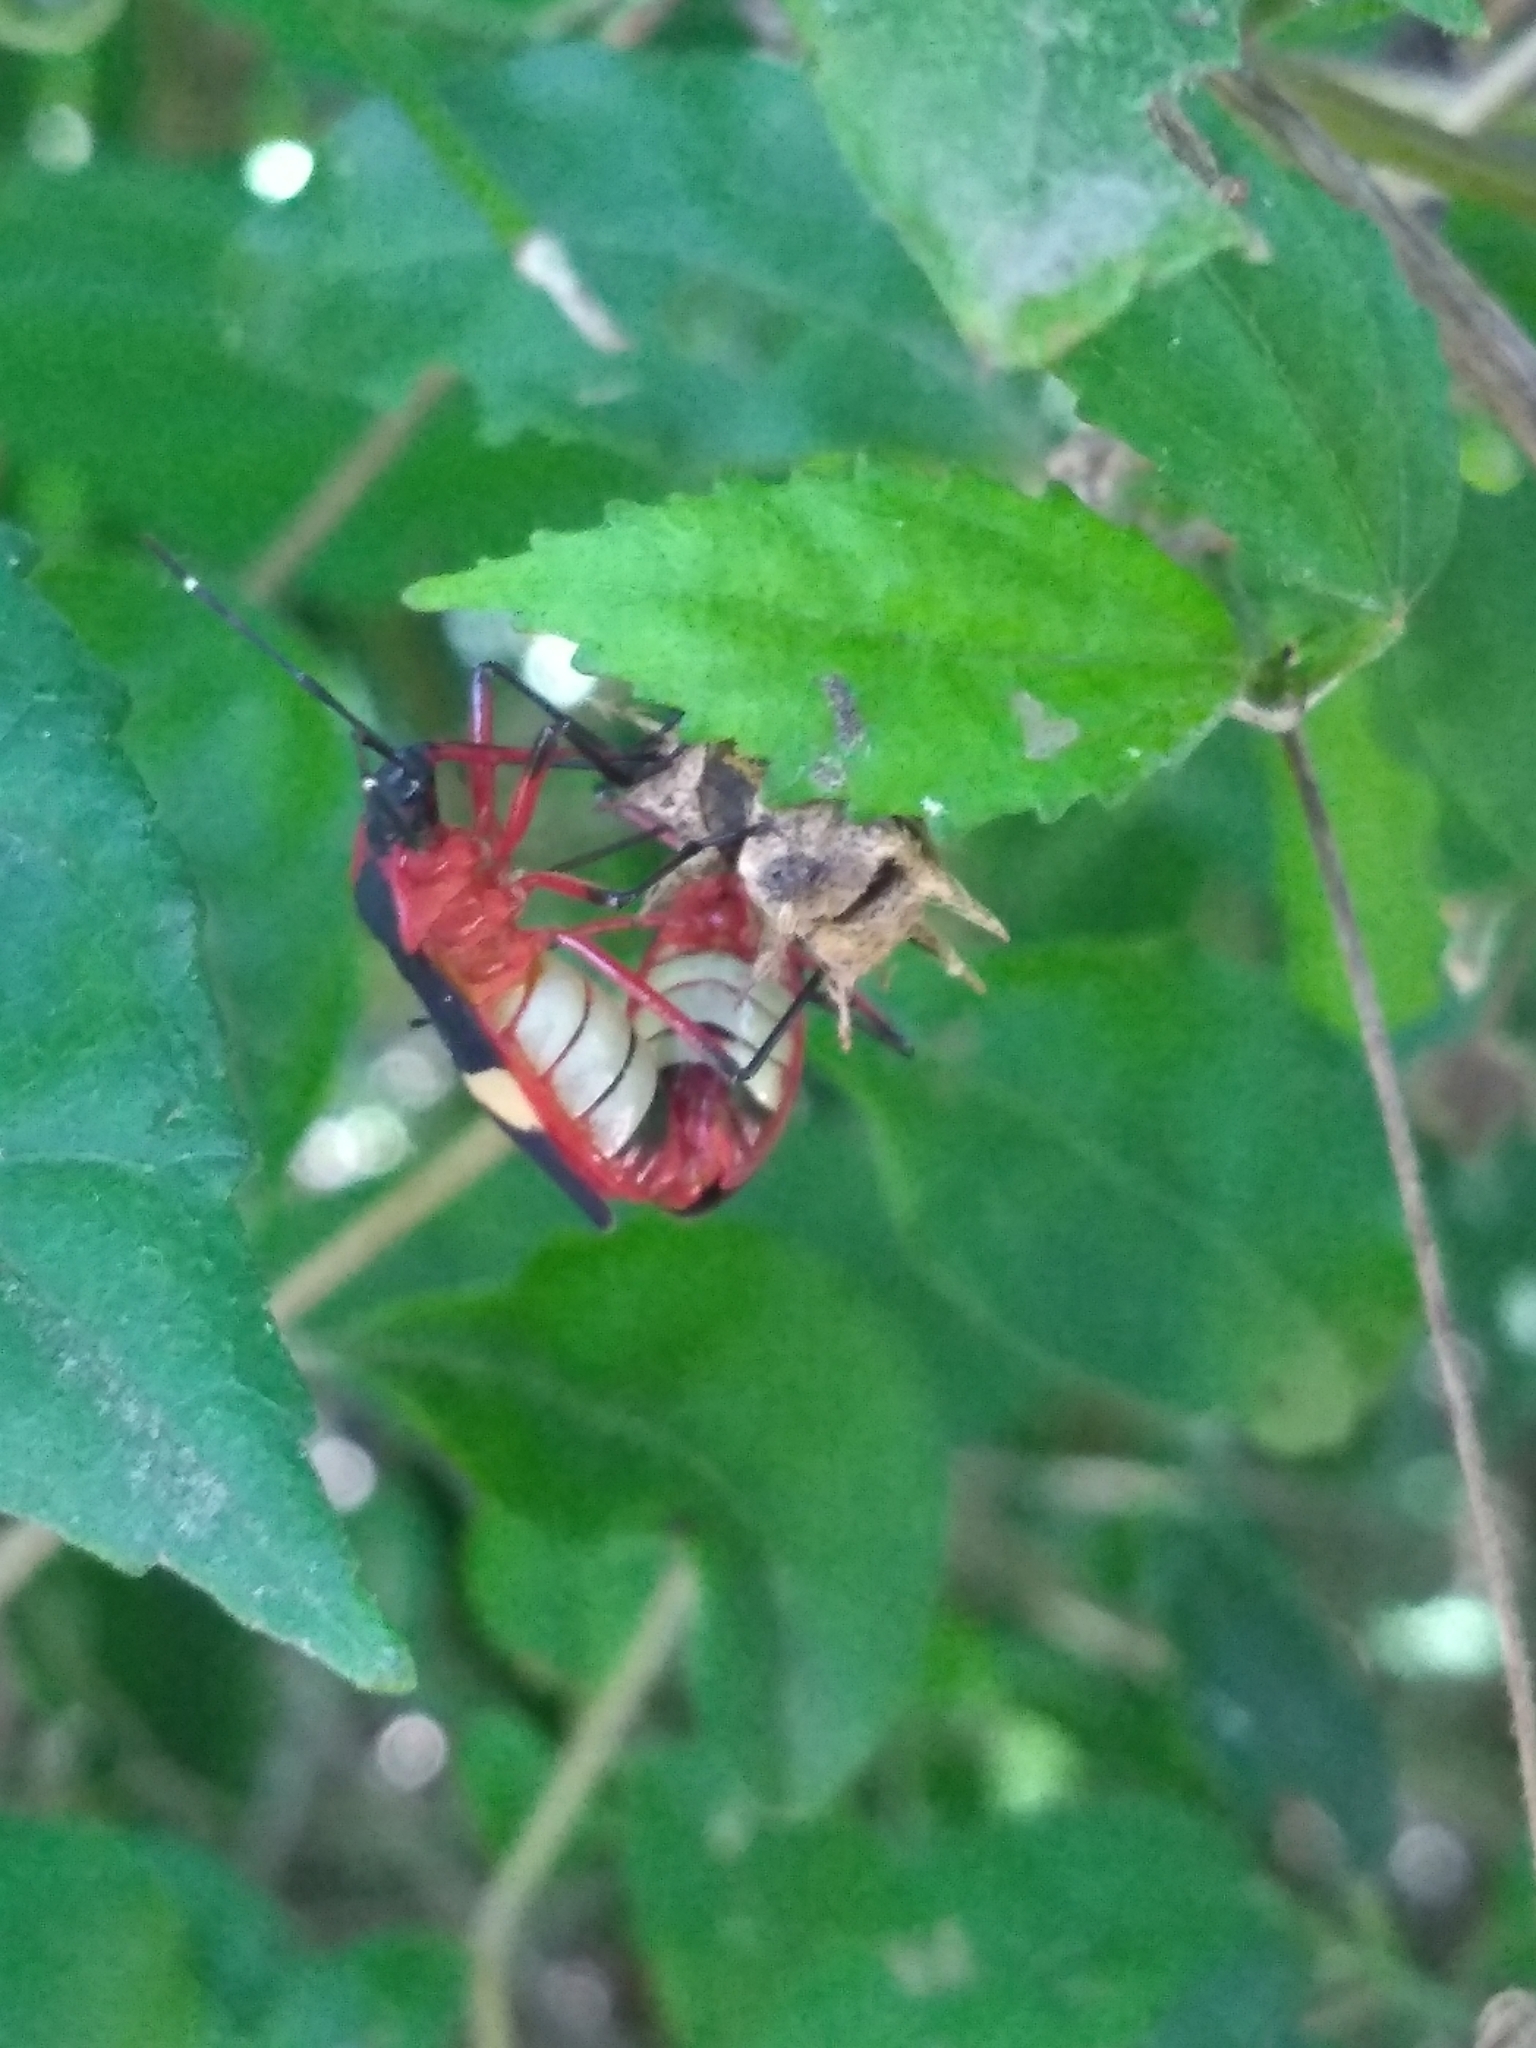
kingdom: Animalia
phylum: Arthropoda
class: Insecta
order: Hemiptera
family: Pyrrhocoridae
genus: Dysdercus
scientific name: Dysdercus albofasciatus
